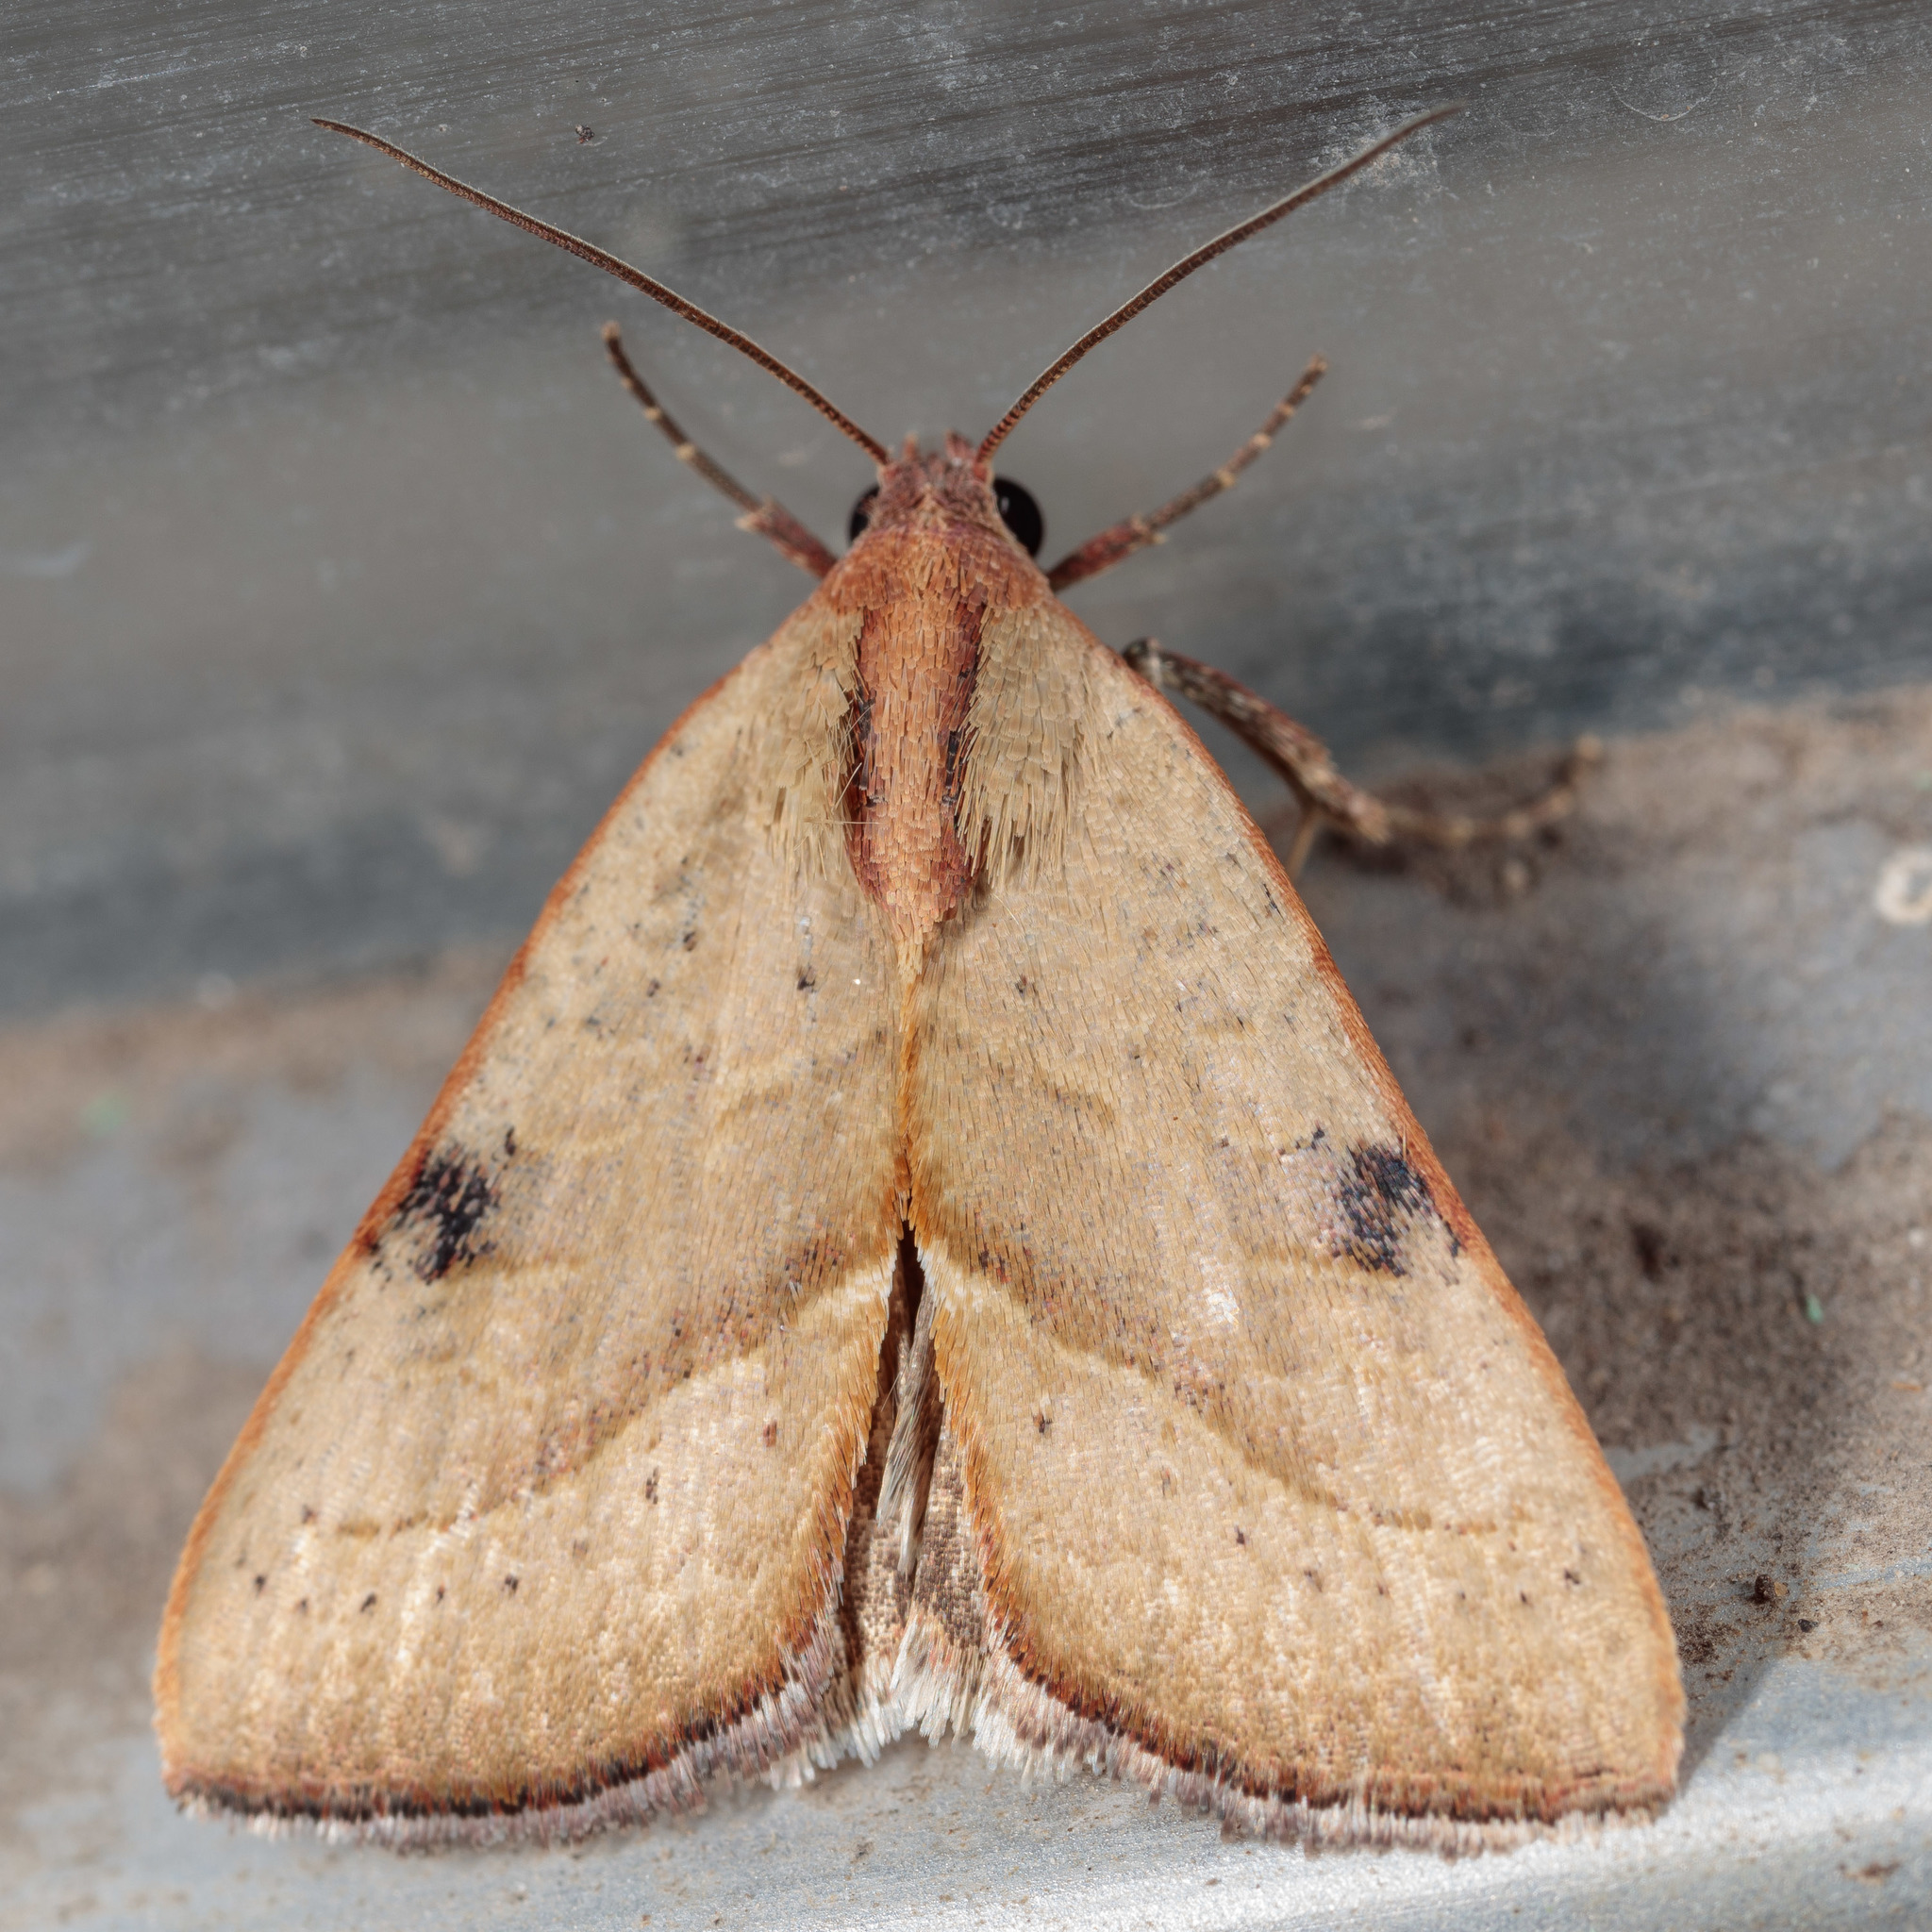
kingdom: Animalia
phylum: Arthropoda
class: Insecta
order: Lepidoptera
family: Noctuidae
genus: Galgula
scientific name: Galgula partita
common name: Wedgeling
